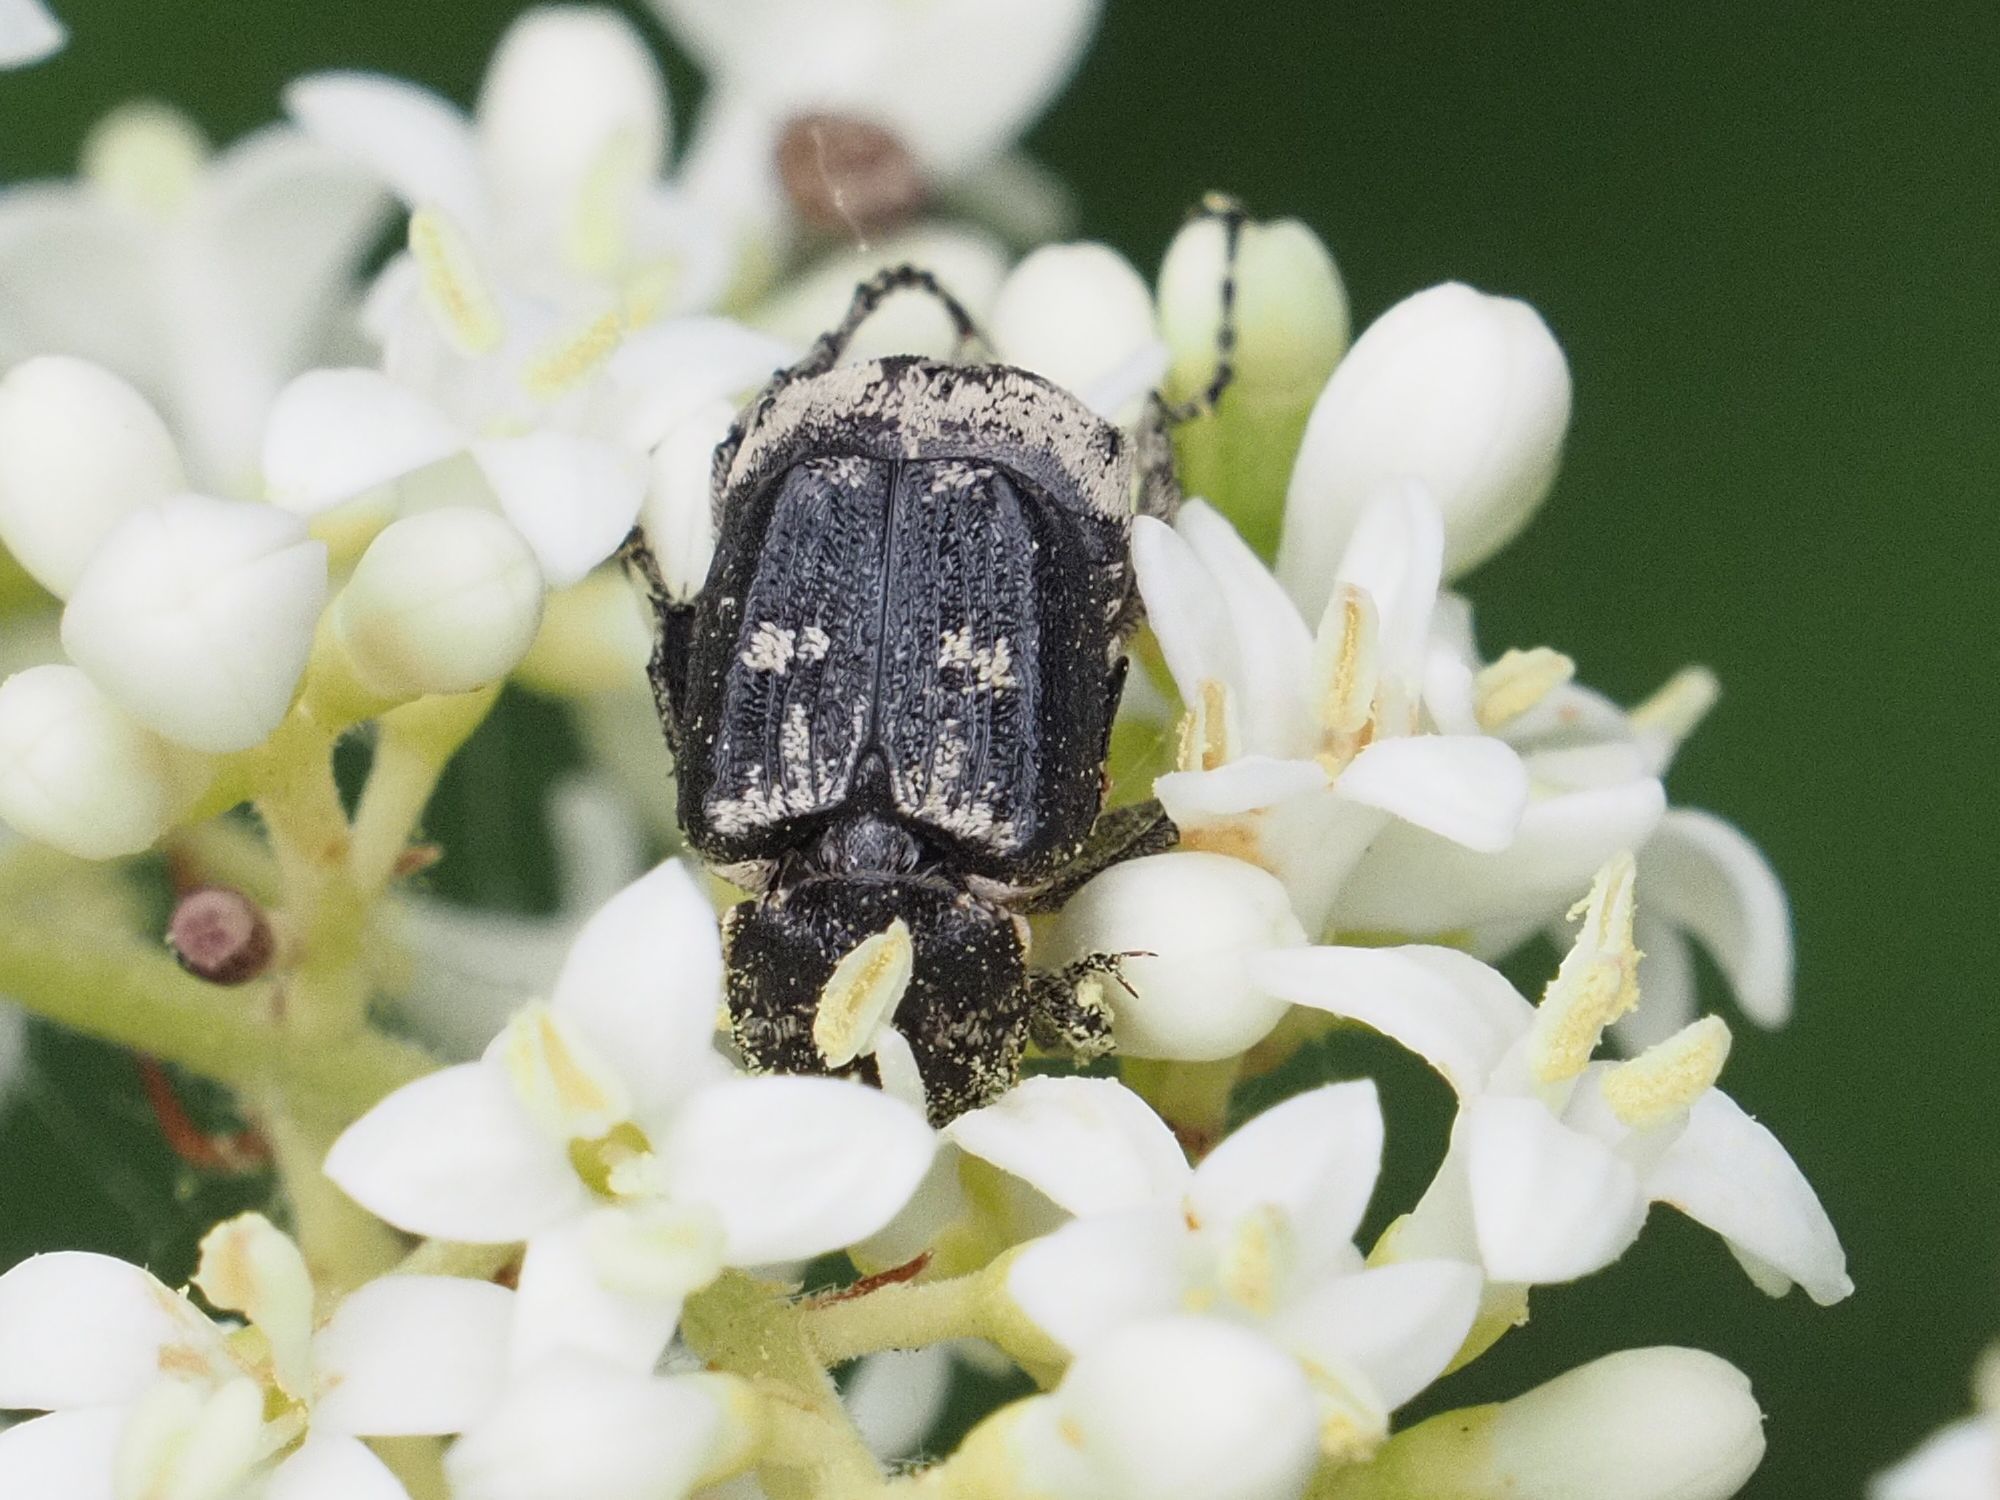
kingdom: Animalia
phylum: Arthropoda
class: Insecta
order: Coleoptera
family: Scarabaeidae
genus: Valgus
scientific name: Valgus hemipterus
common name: Bug flower chafer
